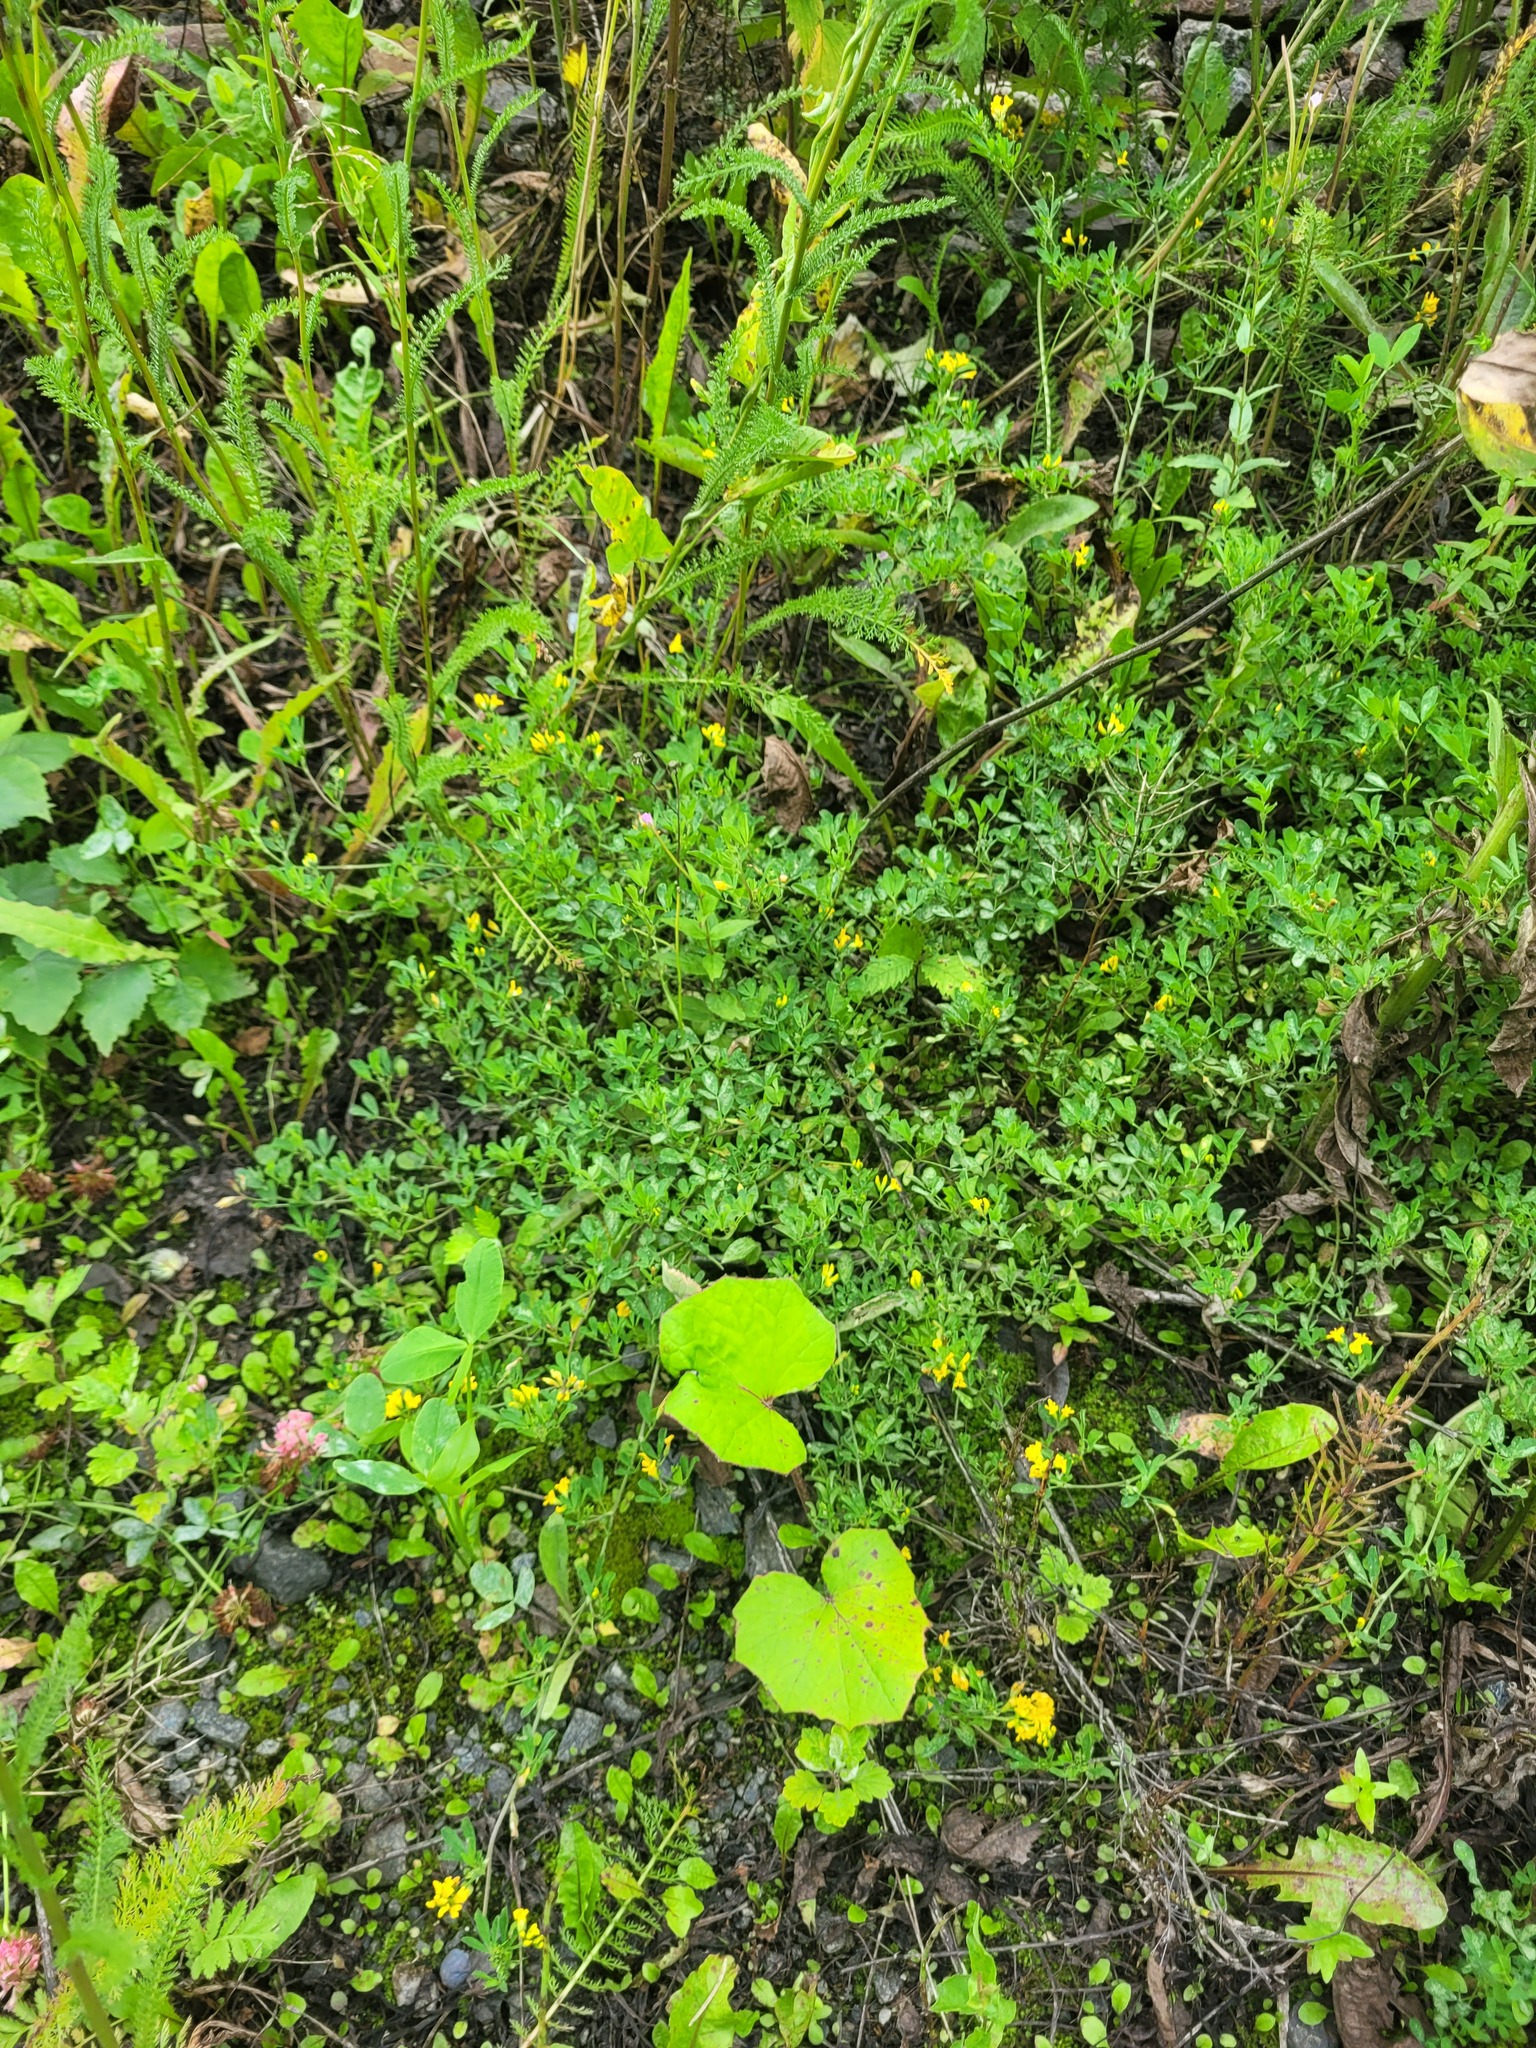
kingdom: Plantae
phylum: Tracheophyta
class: Magnoliopsida
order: Fabales
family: Fabaceae
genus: Medicago
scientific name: Medicago falcata
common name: Sickle medick
